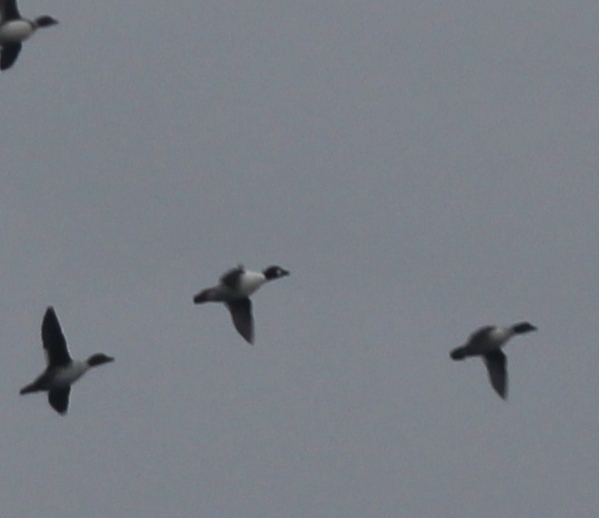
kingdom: Animalia
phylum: Chordata
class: Aves
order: Anseriformes
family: Anatidae
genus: Bucephala
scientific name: Bucephala clangula
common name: Common goldeneye
